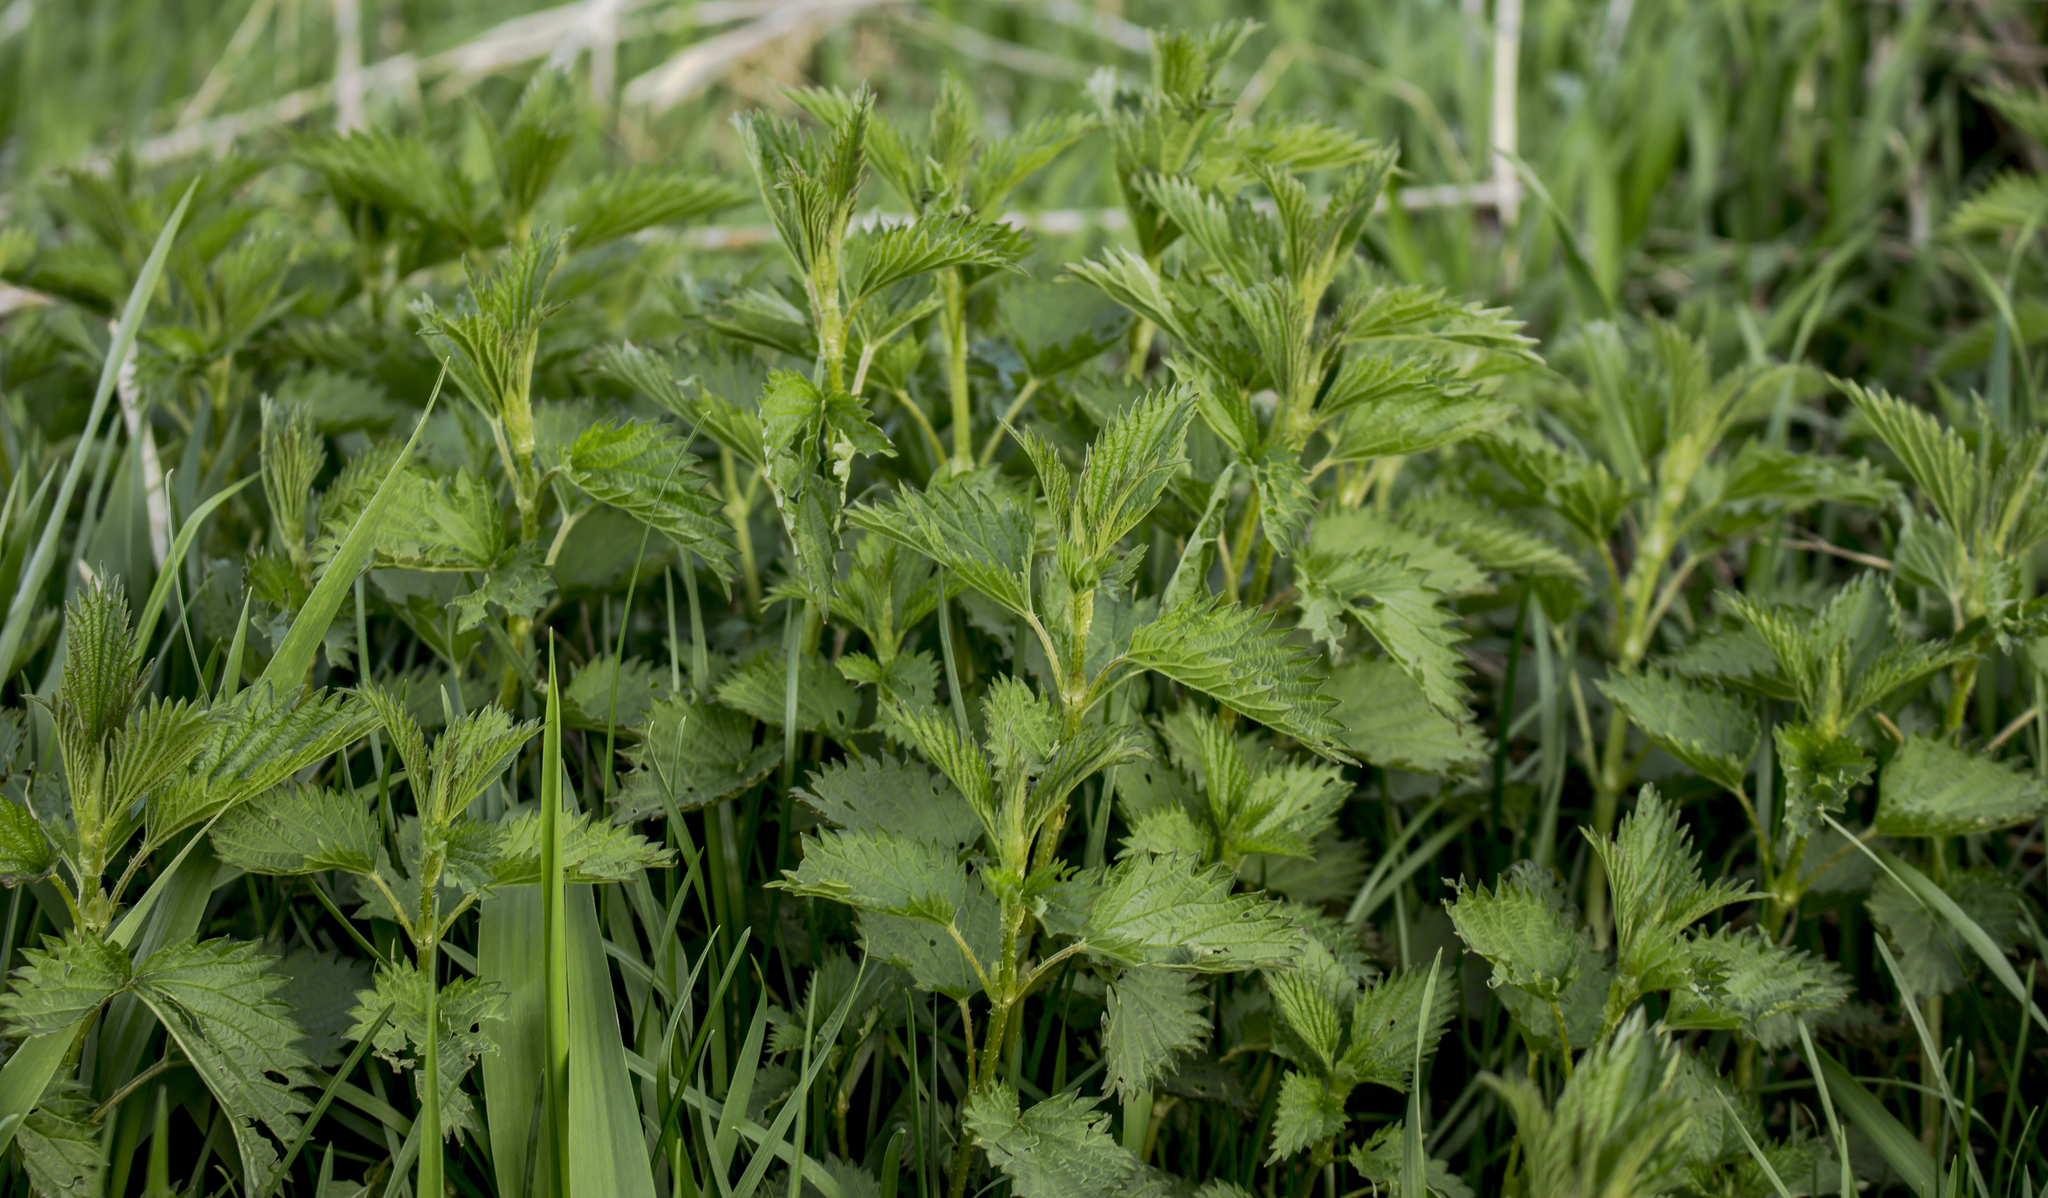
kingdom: Plantae
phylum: Tracheophyta
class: Magnoliopsida
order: Rosales
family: Urticaceae
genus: Urtica
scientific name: Urtica dioica
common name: Common nettle
